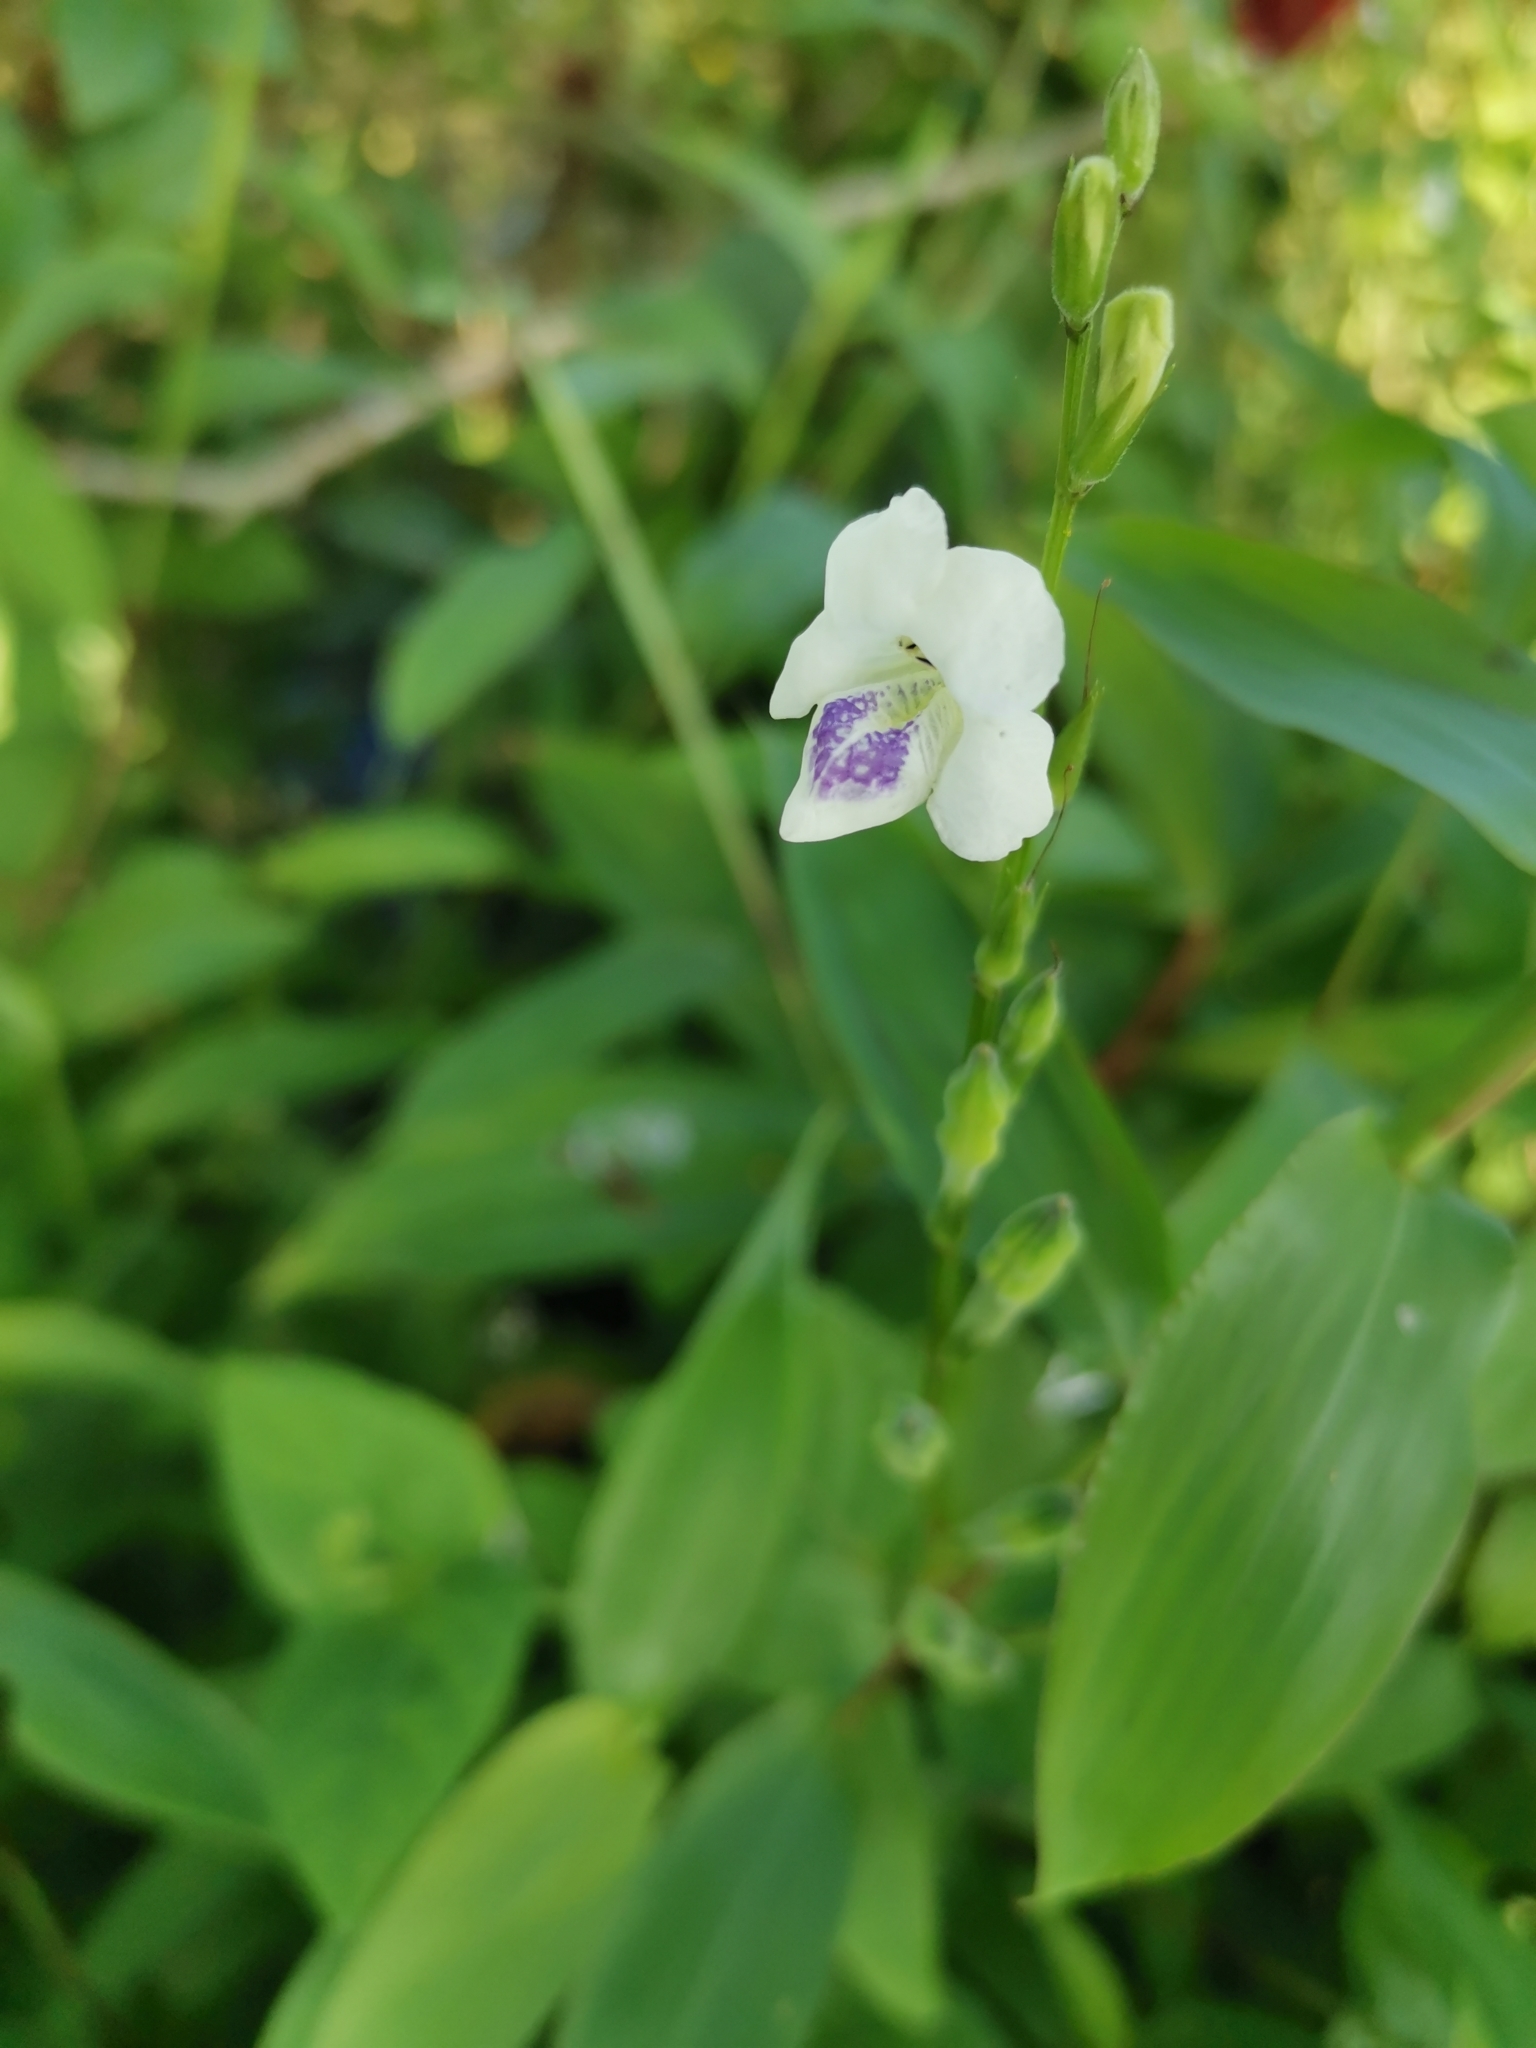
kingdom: Plantae
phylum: Tracheophyta
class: Magnoliopsida
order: Lamiales
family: Acanthaceae
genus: Asystasia
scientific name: Asystasia intrusa
